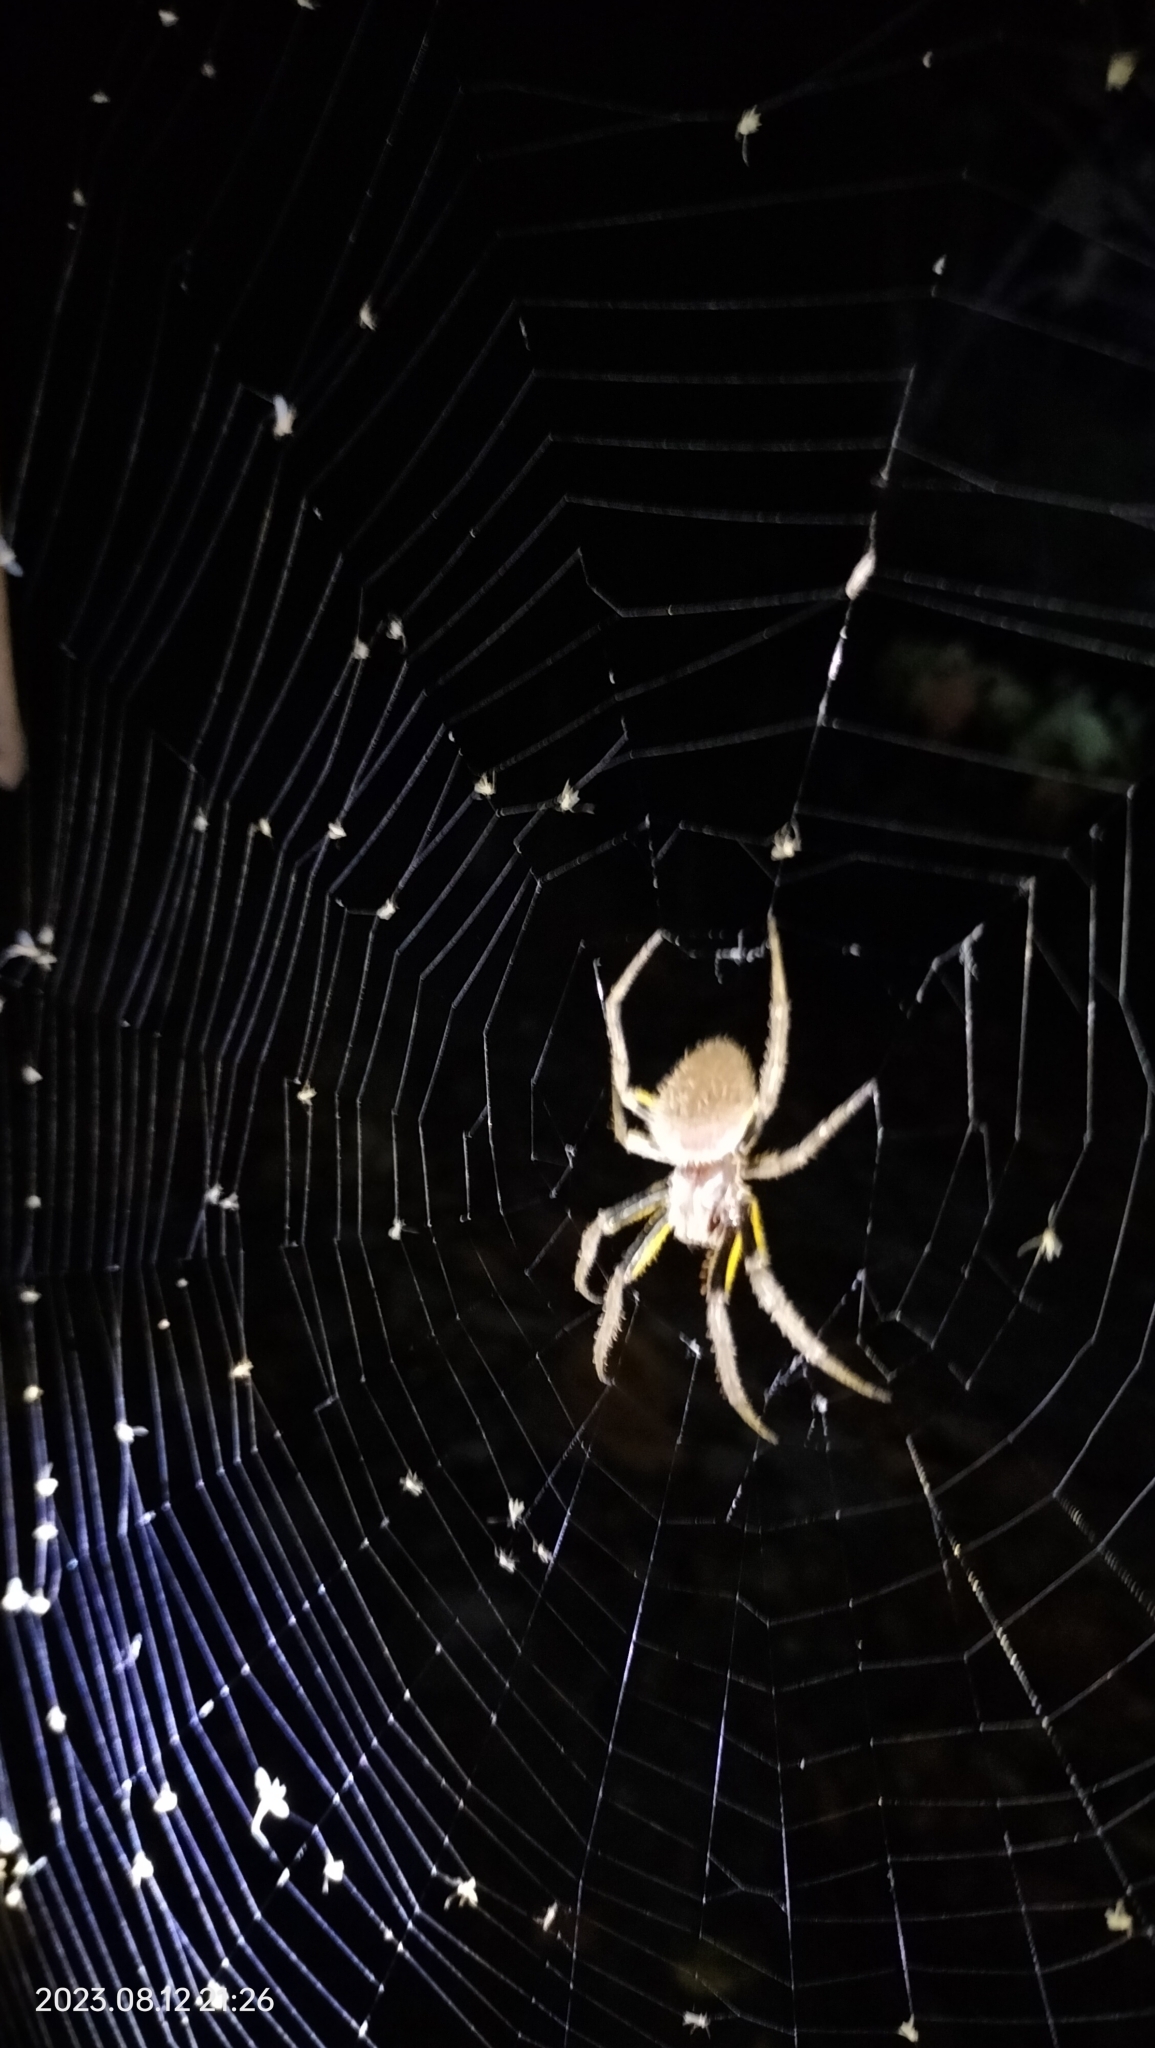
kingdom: Animalia
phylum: Arthropoda
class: Arachnida
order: Araneae
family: Araneidae
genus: Eriophora
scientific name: Eriophora fuliginea
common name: Orb weavers
